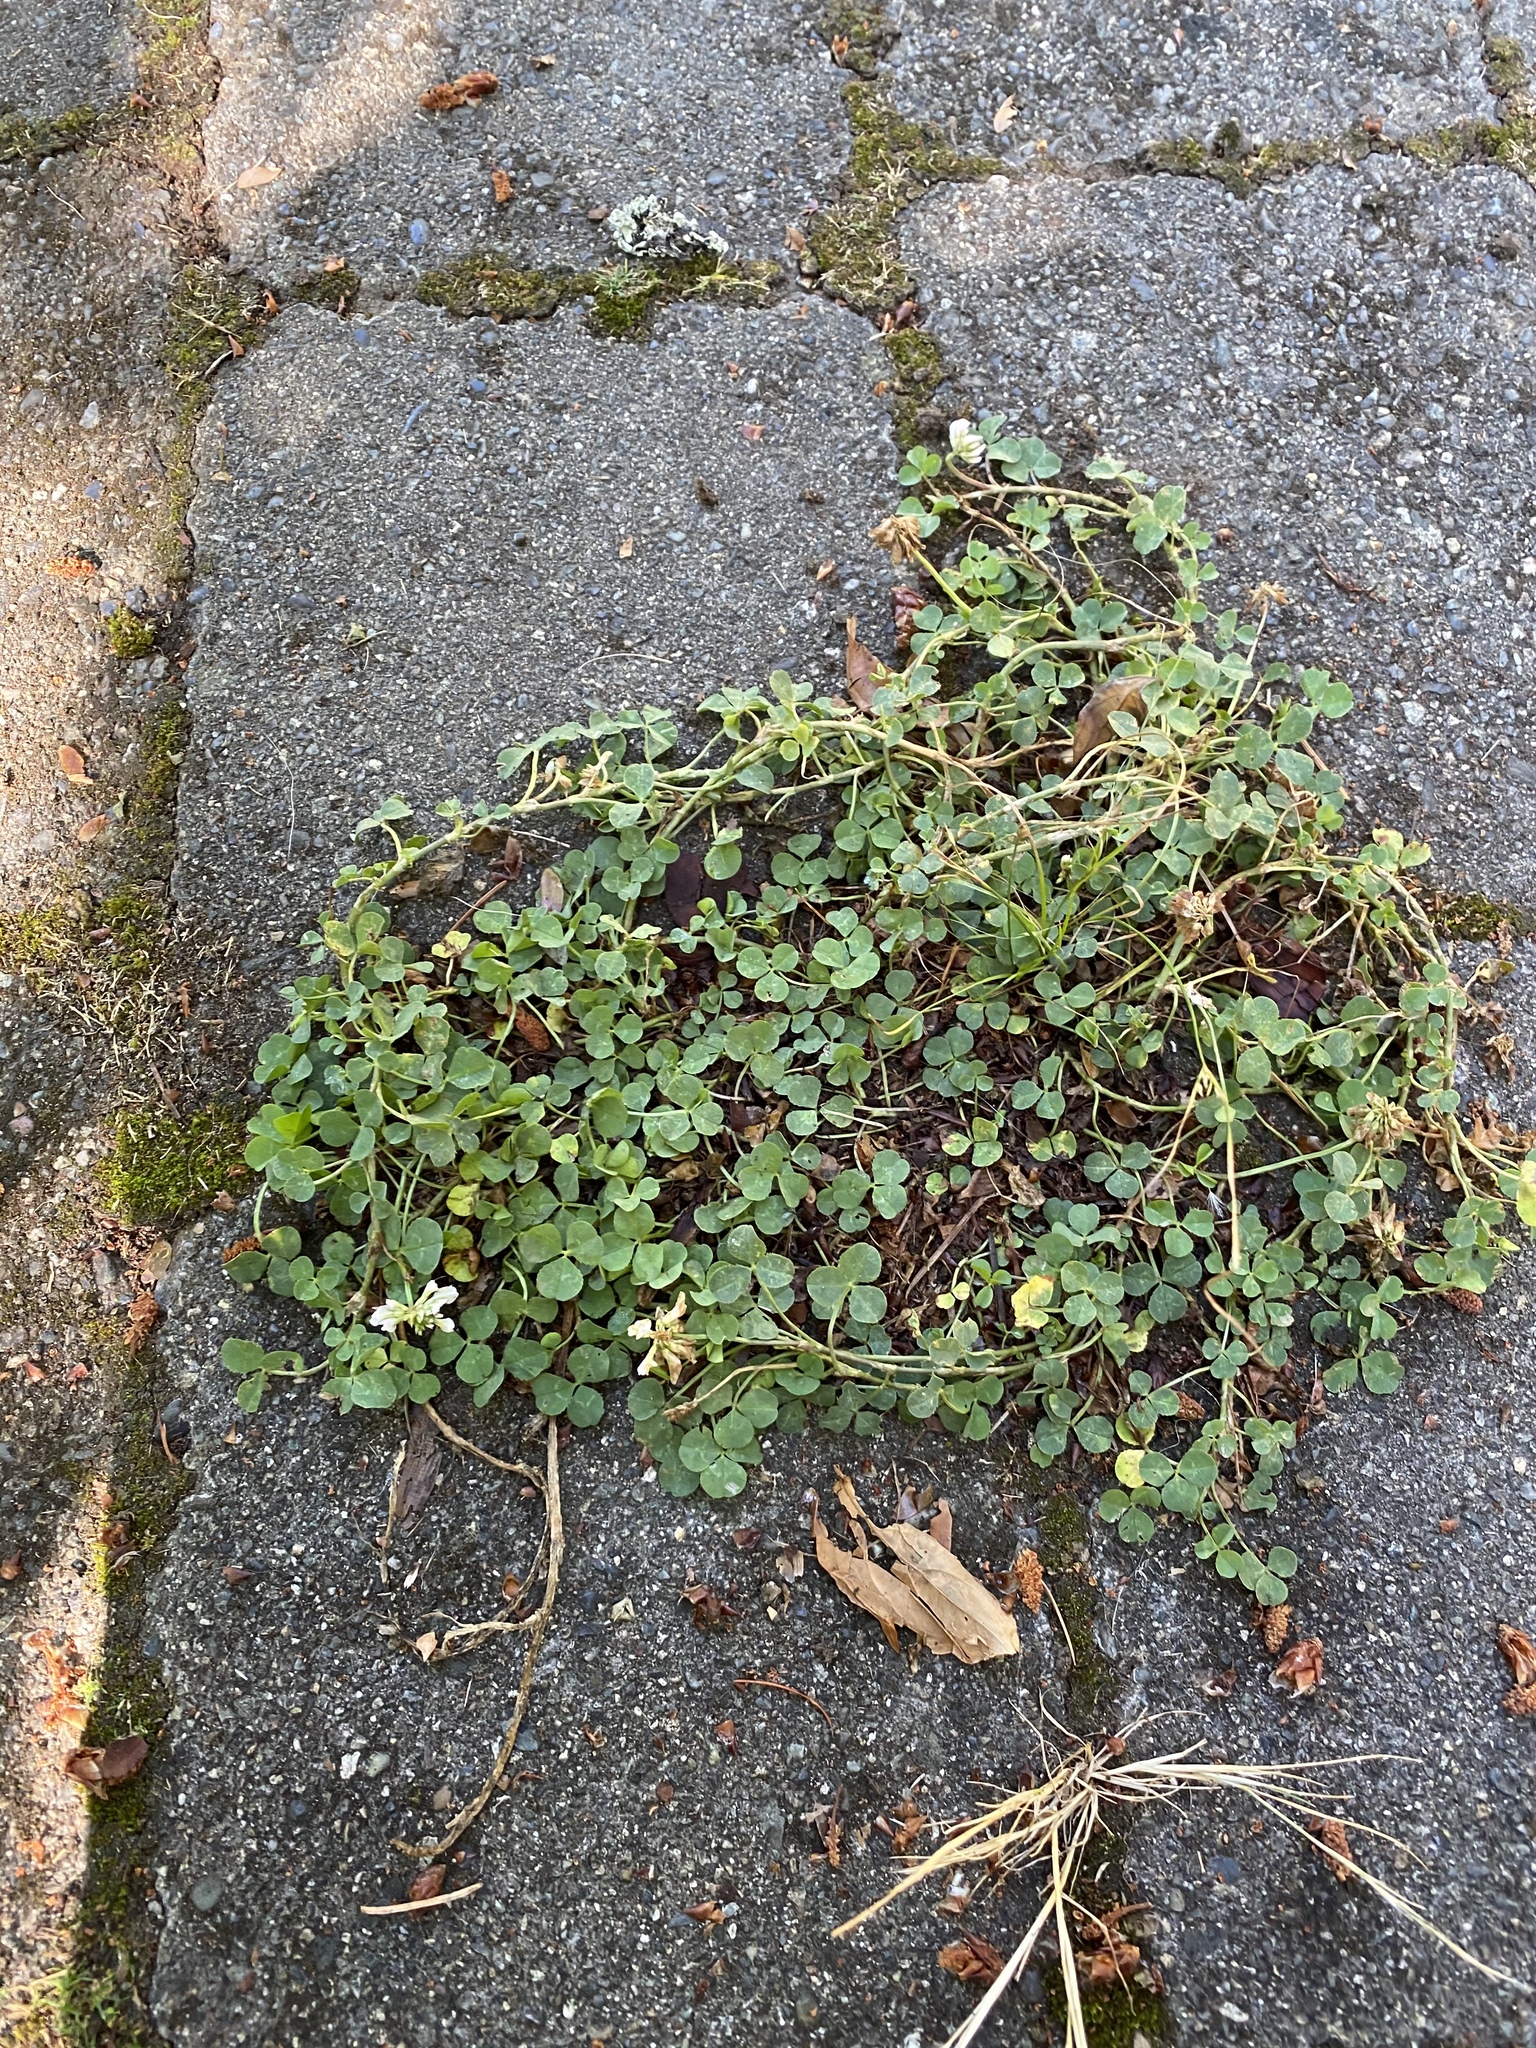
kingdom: Plantae
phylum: Tracheophyta
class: Magnoliopsida
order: Fabales
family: Fabaceae
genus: Trifolium
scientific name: Trifolium repens
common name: White clover
